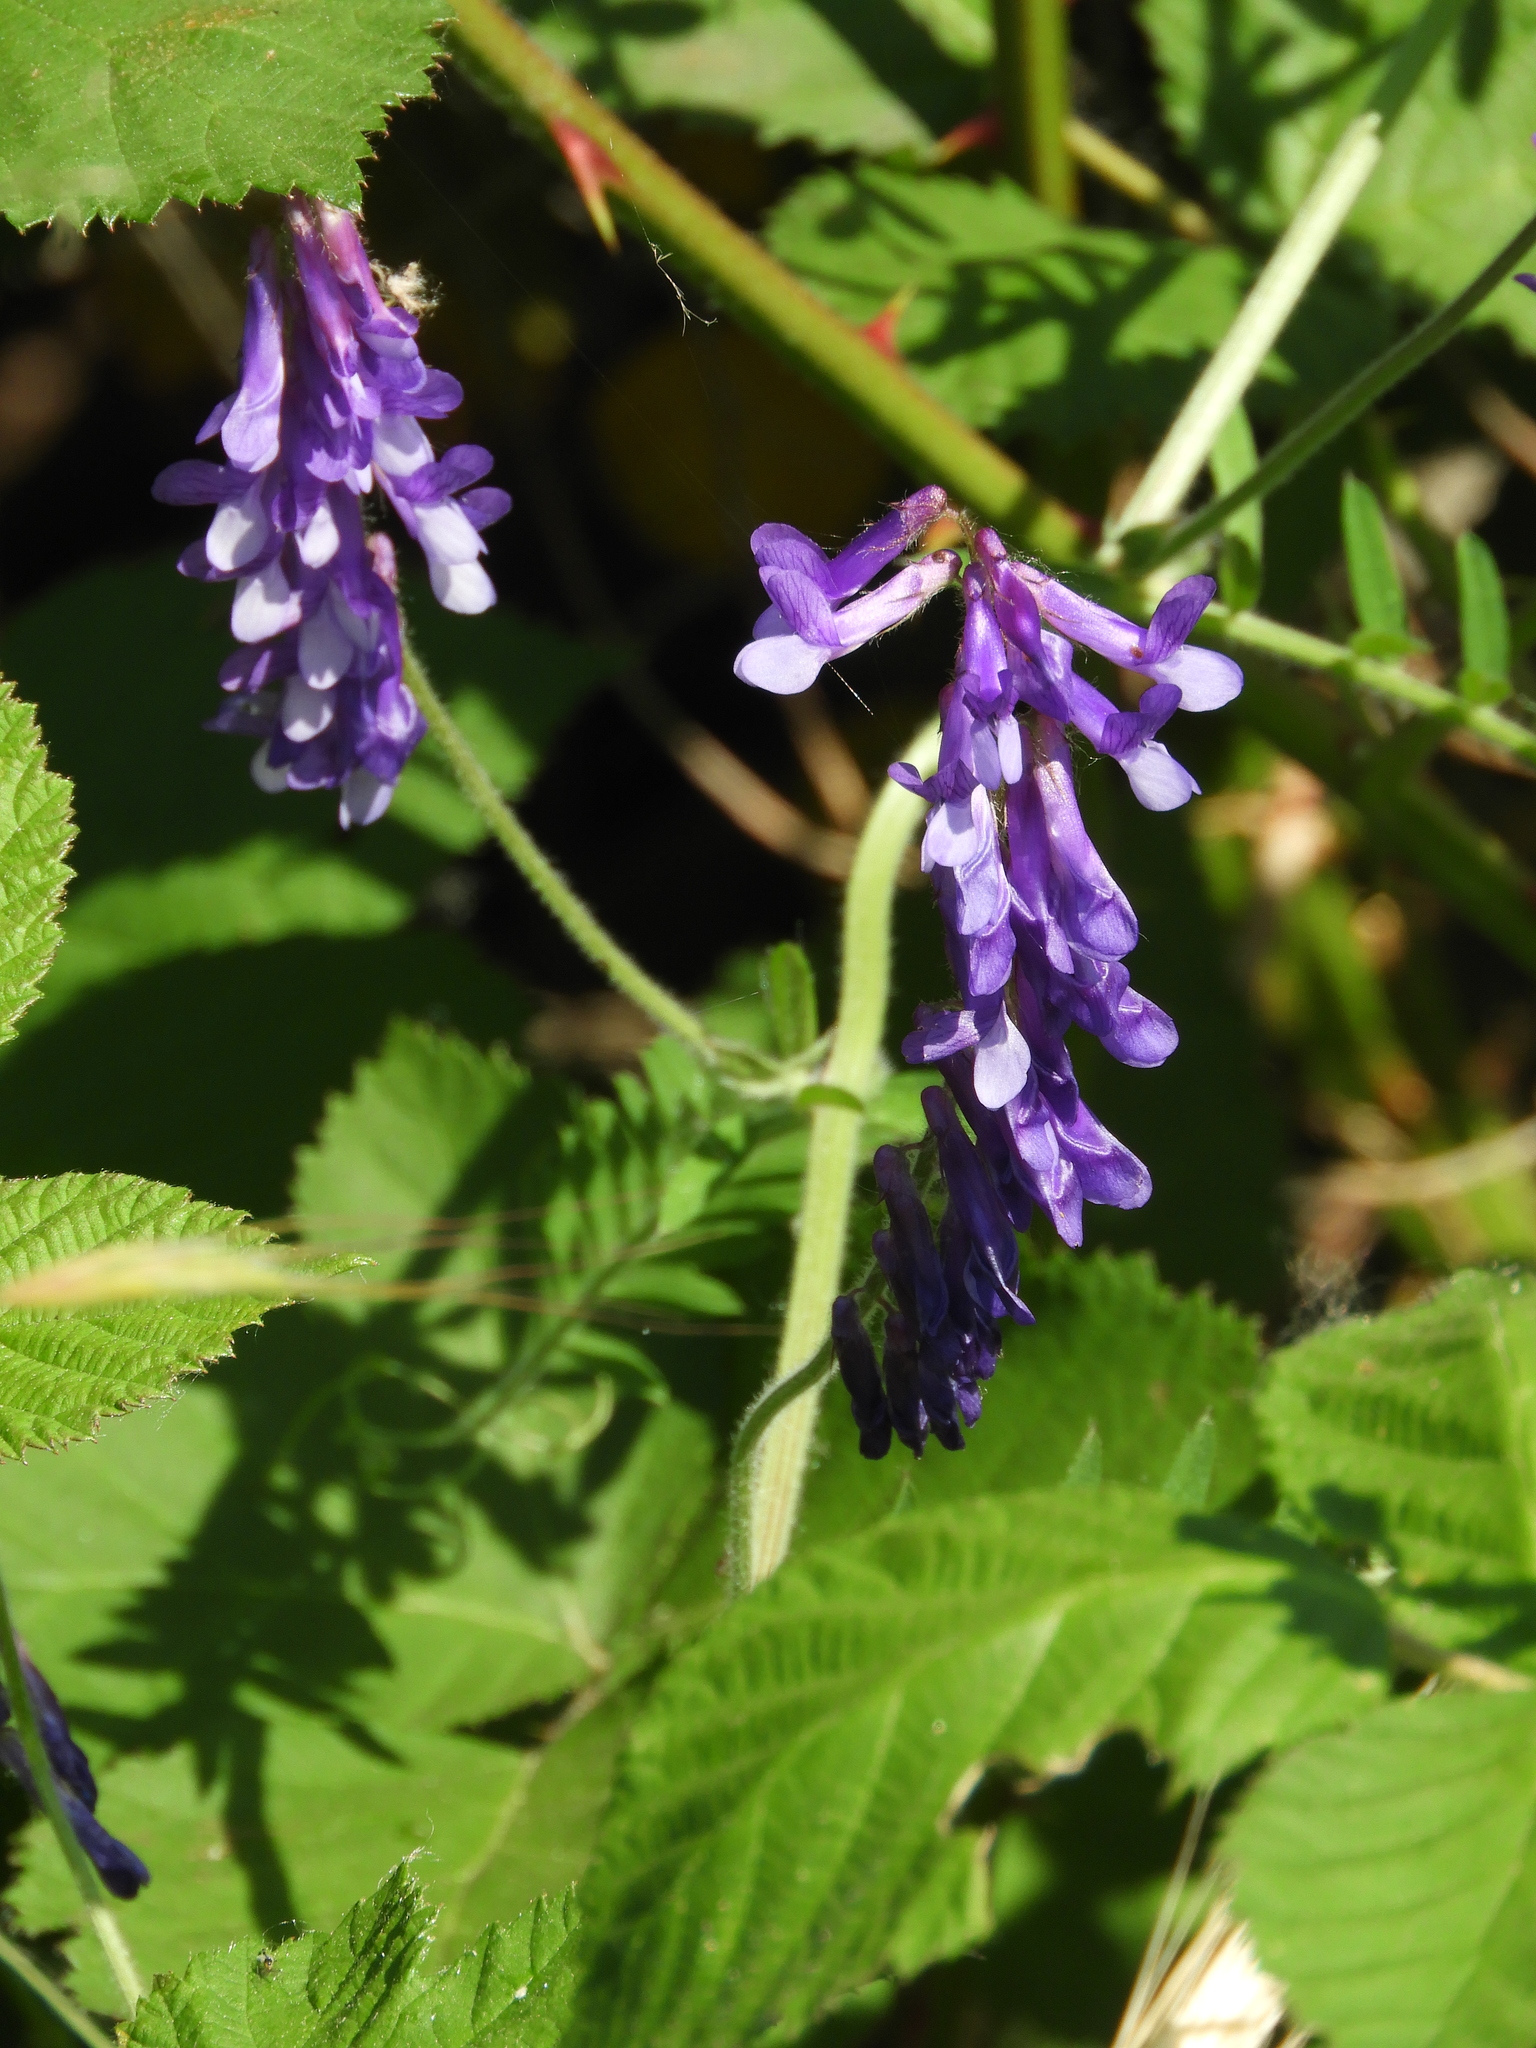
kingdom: Plantae
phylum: Tracheophyta
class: Magnoliopsida
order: Fabales
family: Fabaceae
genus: Vicia
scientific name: Vicia villosa
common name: Fodder vetch
